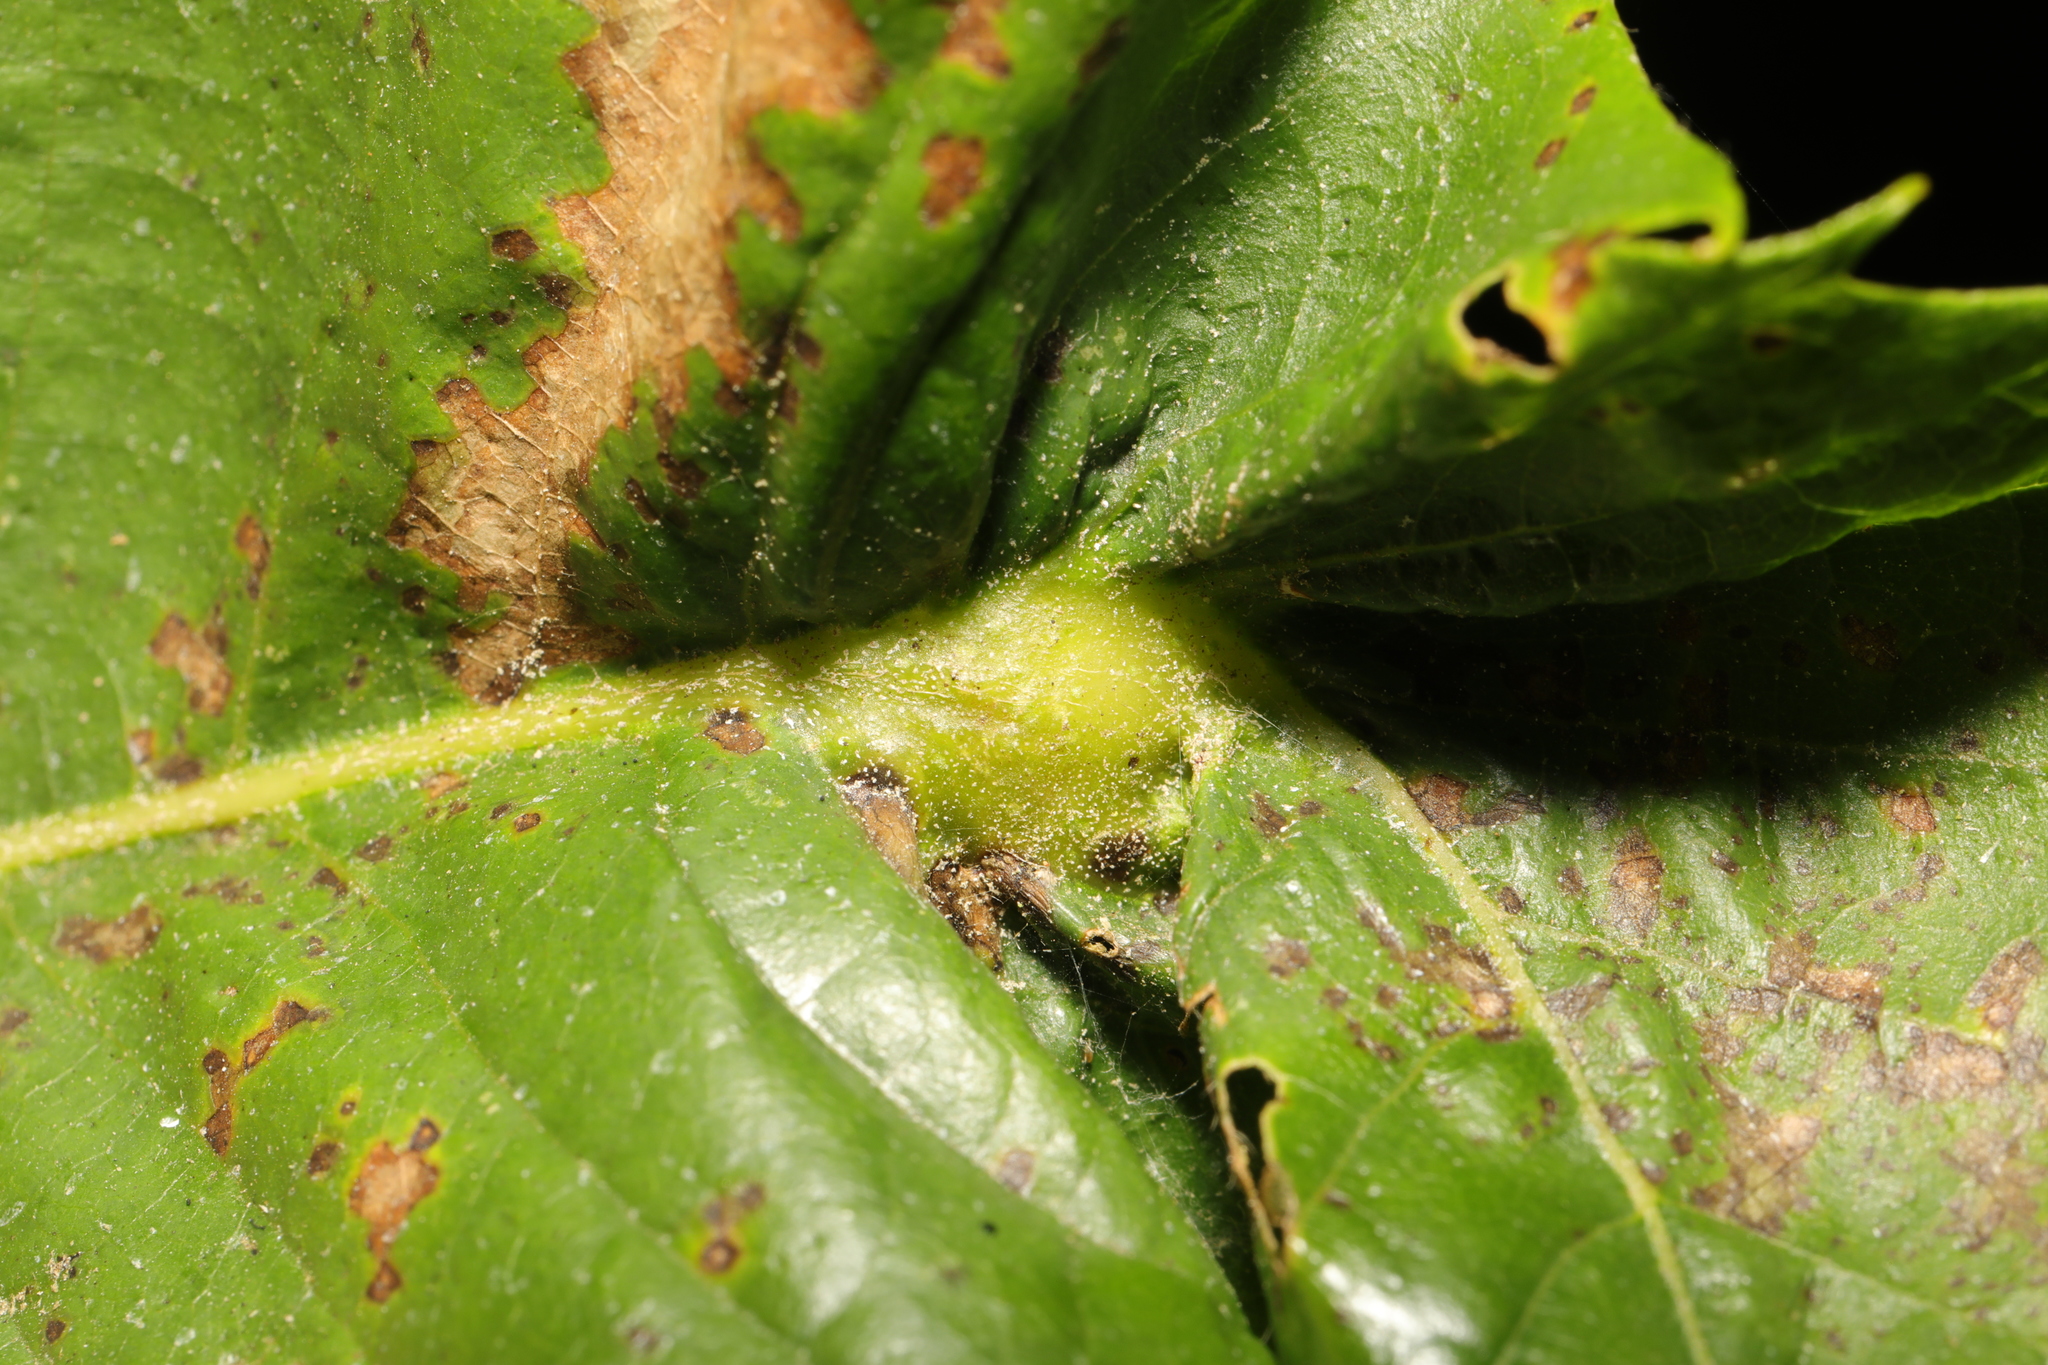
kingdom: Animalia
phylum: Arthropoda
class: Insecta
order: Hymenoptera
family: Cynipidae
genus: Dryocosmus
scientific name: Dryocosmus kuriphilus
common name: Asian chestnut gall wasp
